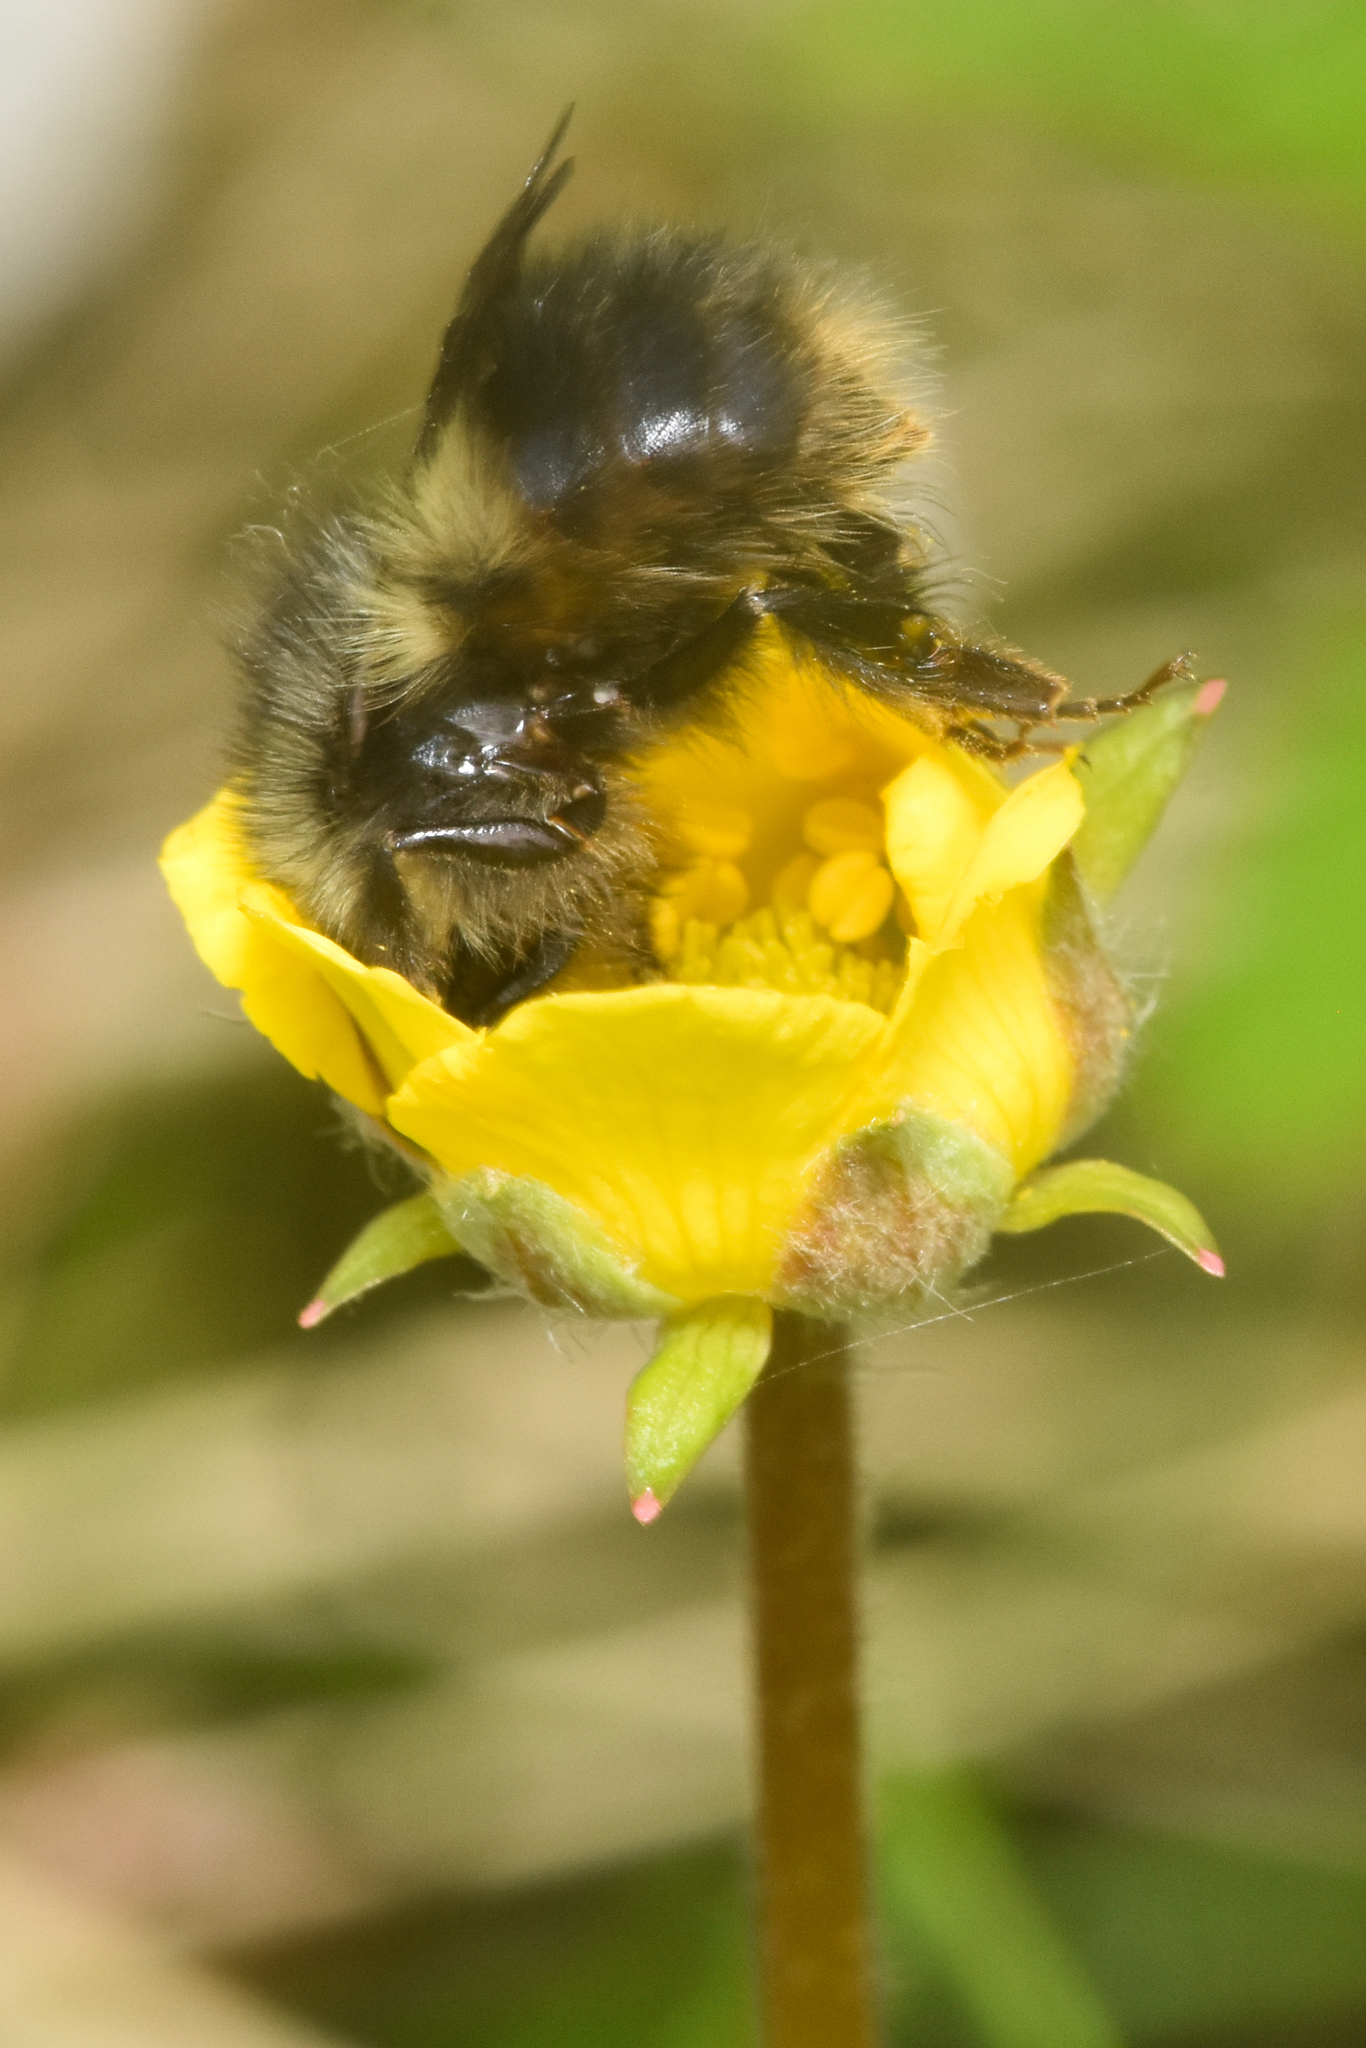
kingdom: Animalia
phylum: Arthropoda
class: Insecta
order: Hymenoptera
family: Apidae
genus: Bombus
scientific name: Bombus sitkensis
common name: Sitka bumble bee
